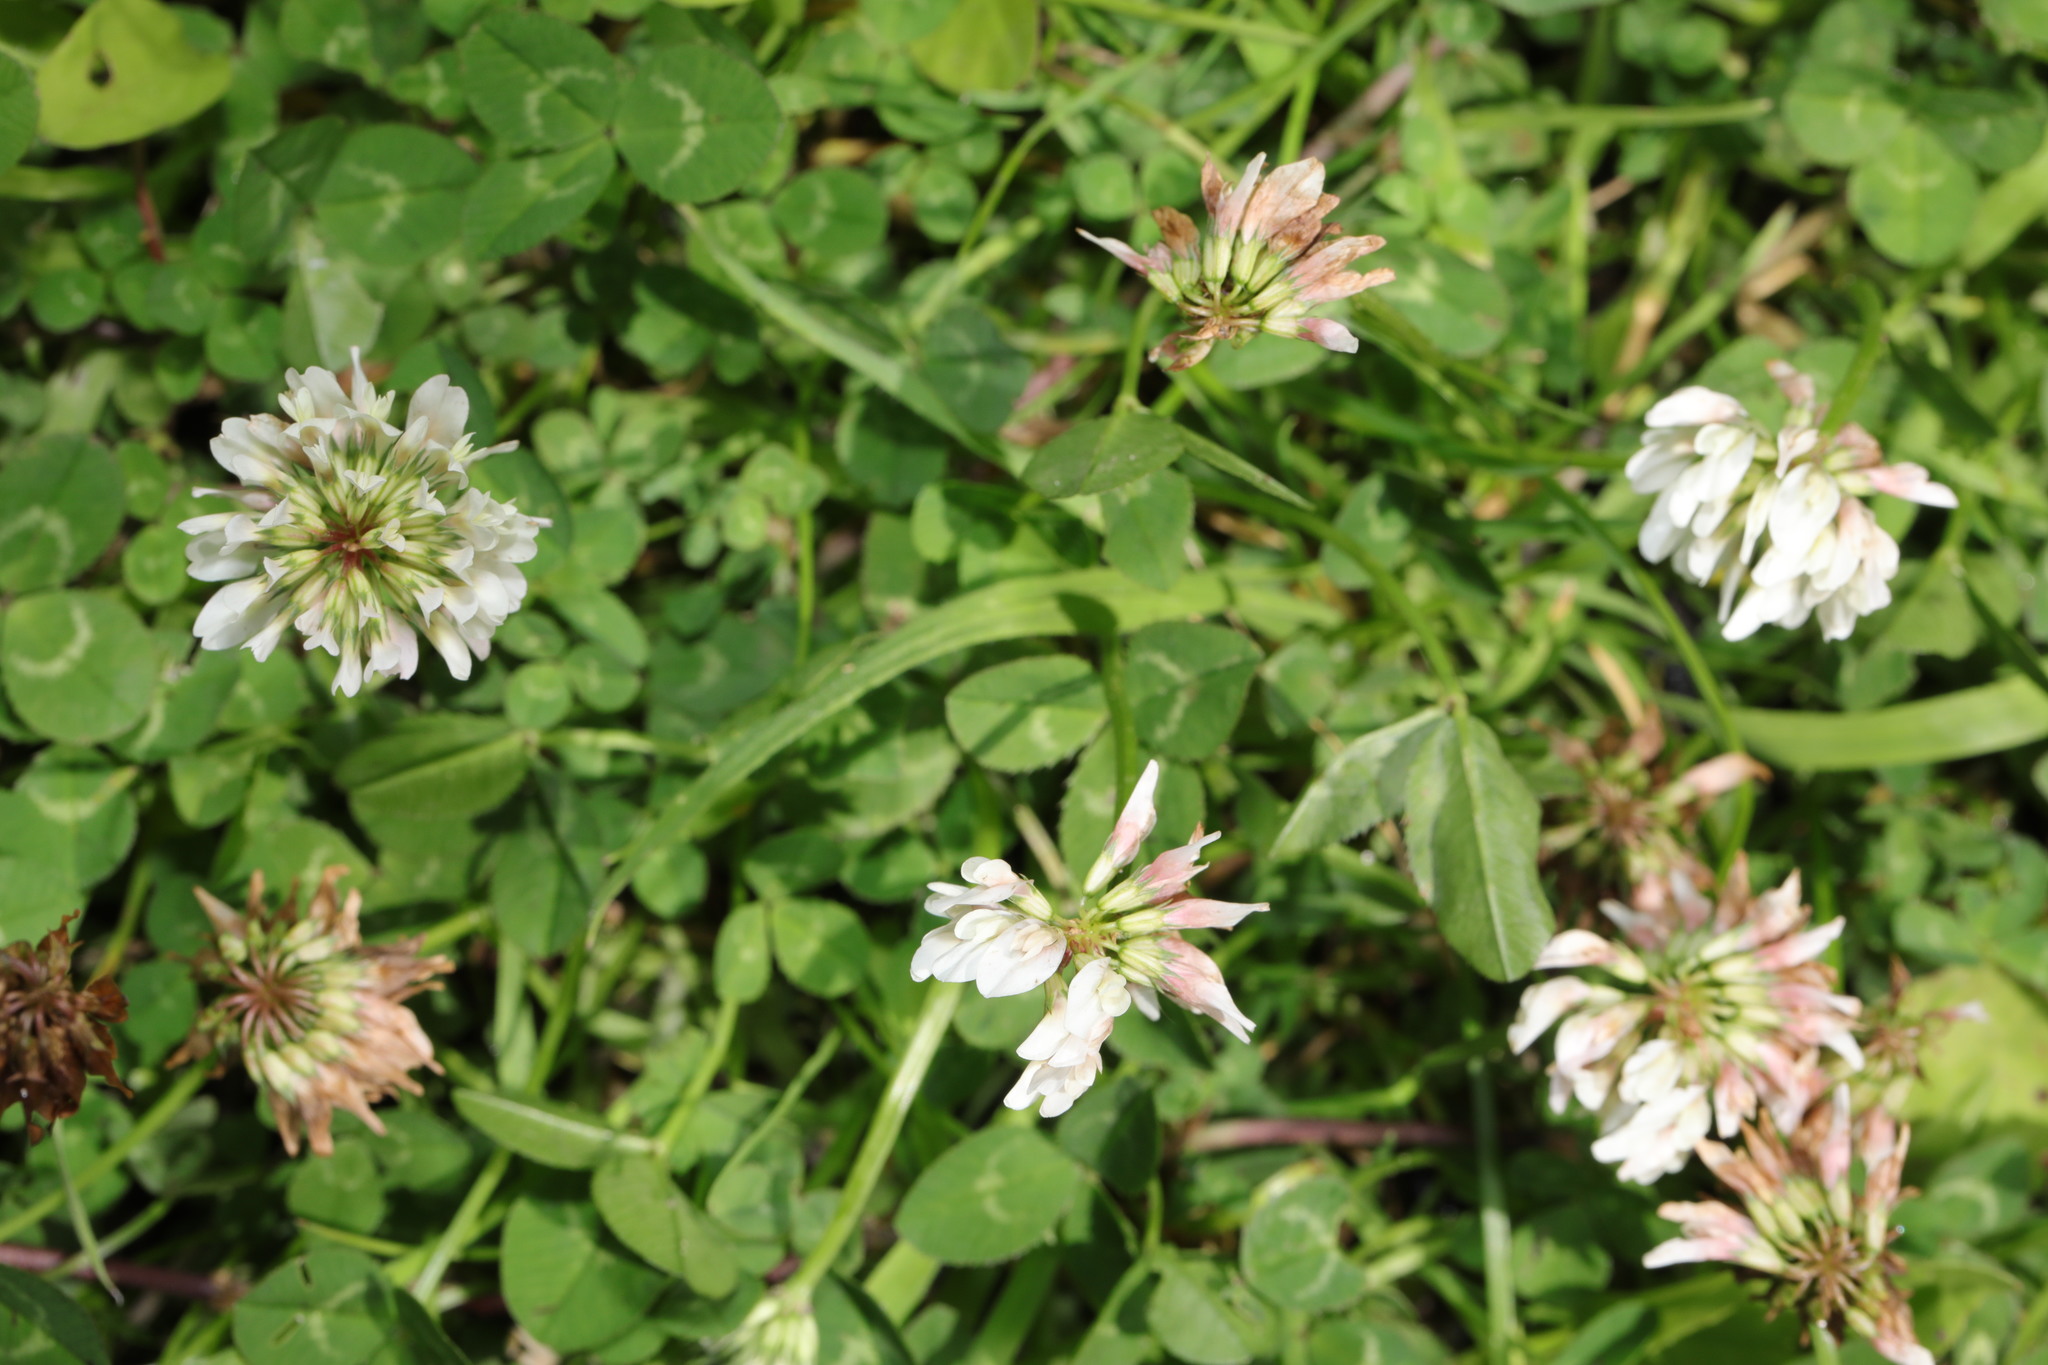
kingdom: Plantae
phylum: Tracheophyta
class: Magnoliopsida
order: Fabales
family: Fabaceae
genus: Trifolium
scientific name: Trifolium repens
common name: White clover
